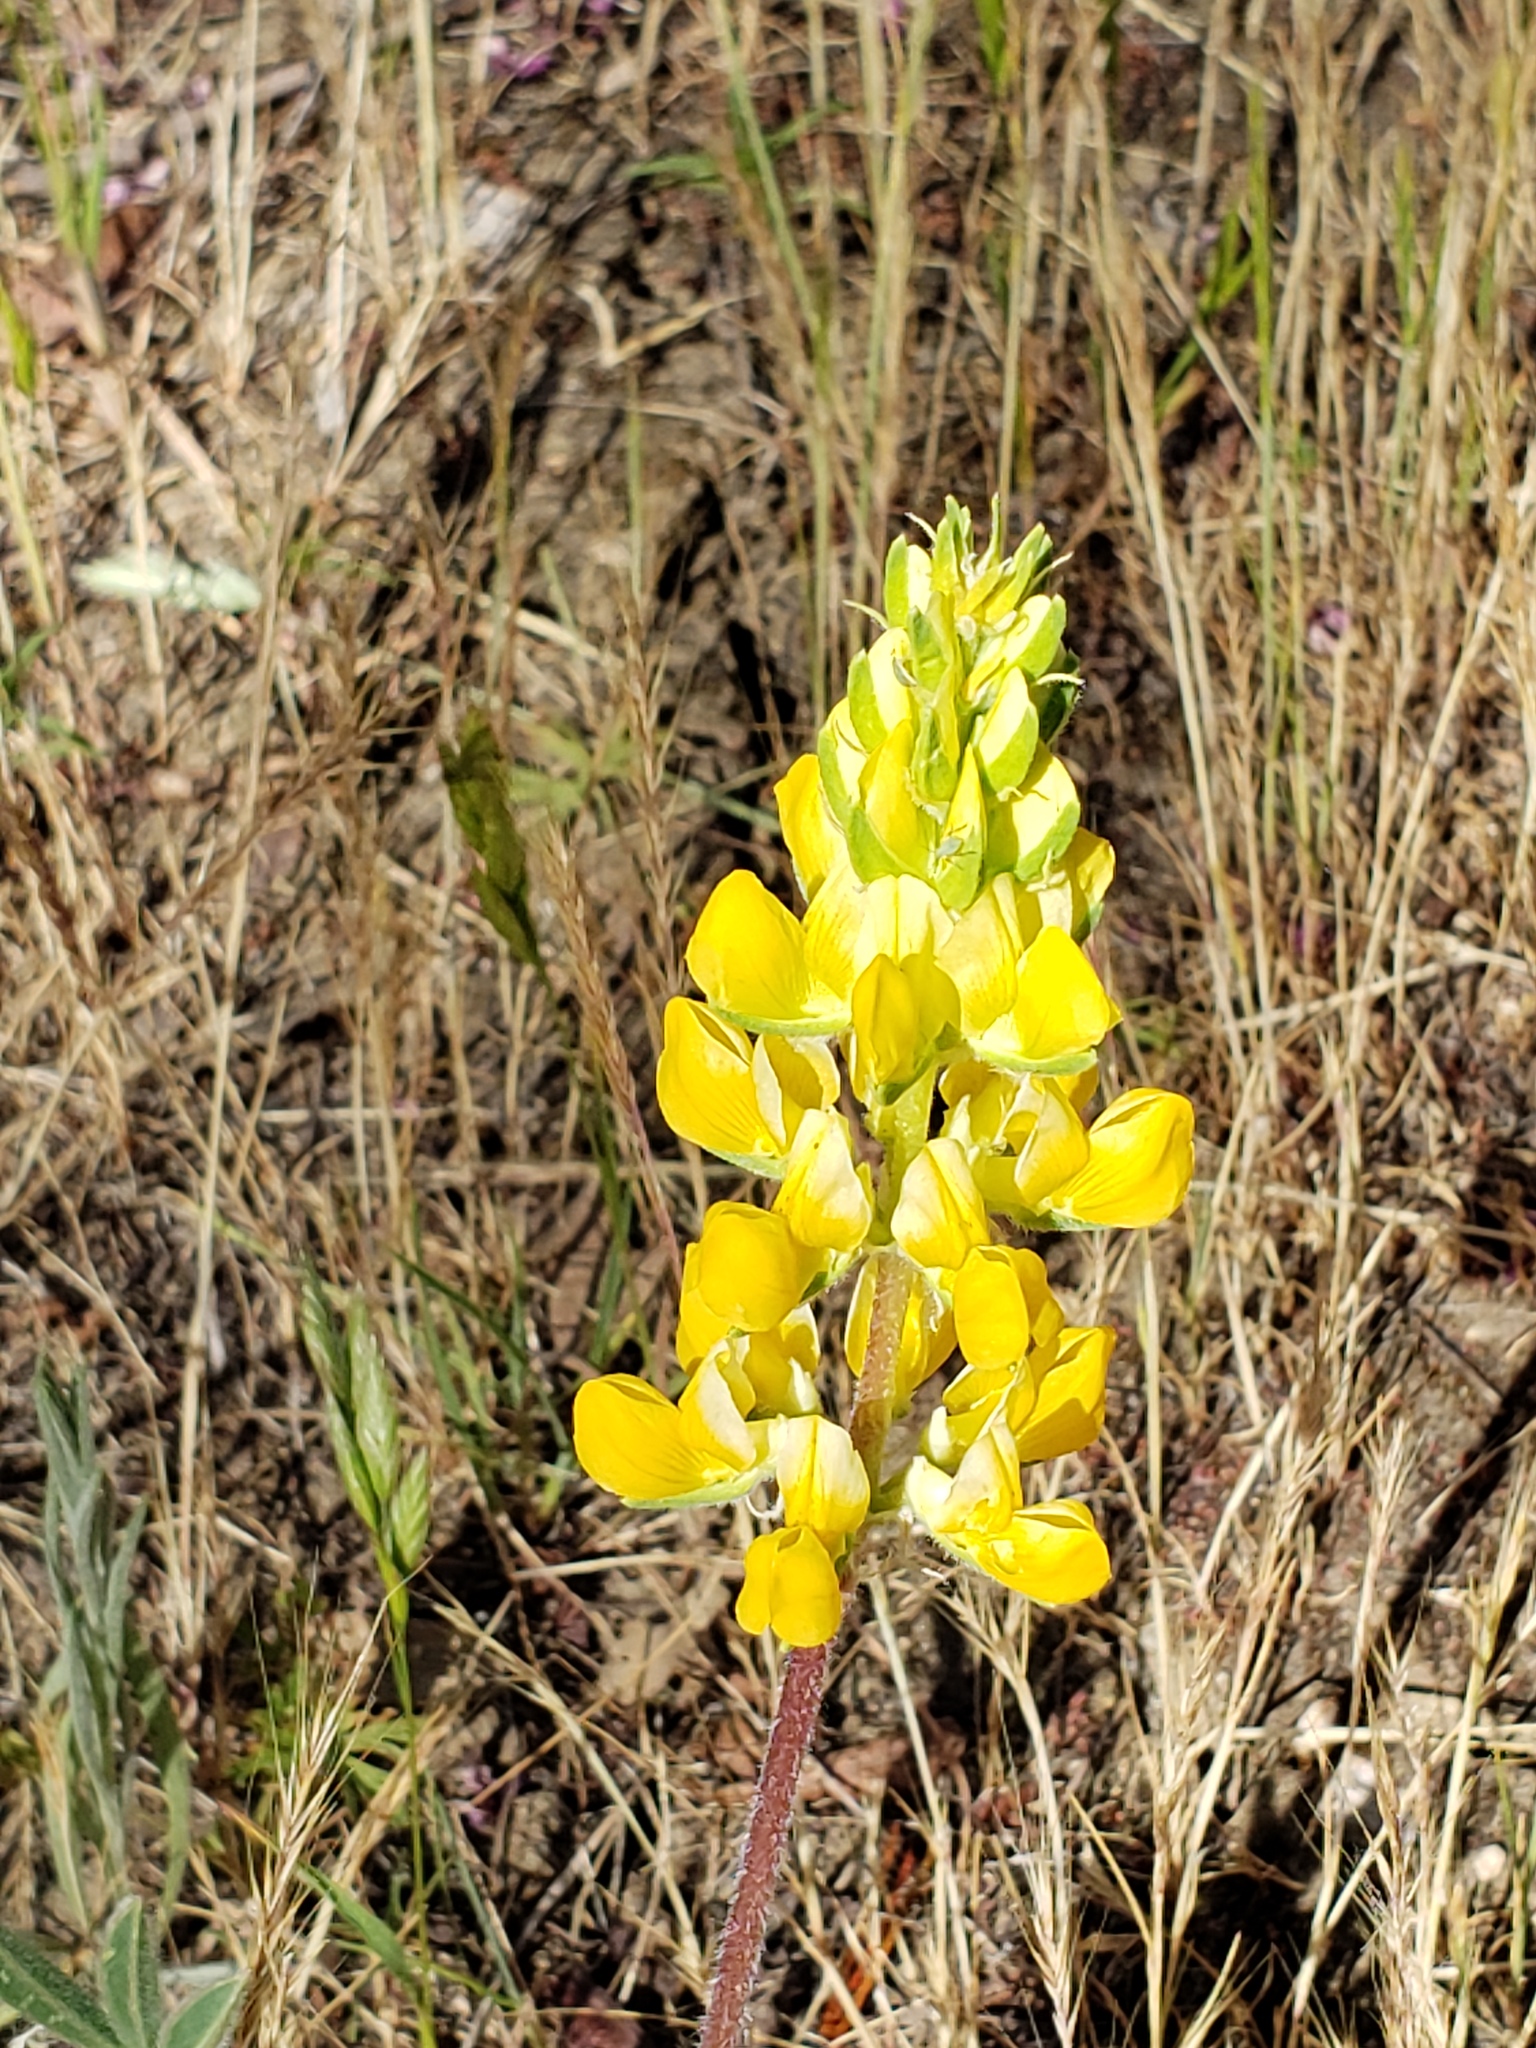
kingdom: Plantae
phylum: Tracheophyta
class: Magnoliopsida
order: Fabales
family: Fabaceae
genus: Lupinus
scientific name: Lupinus densiflorus
